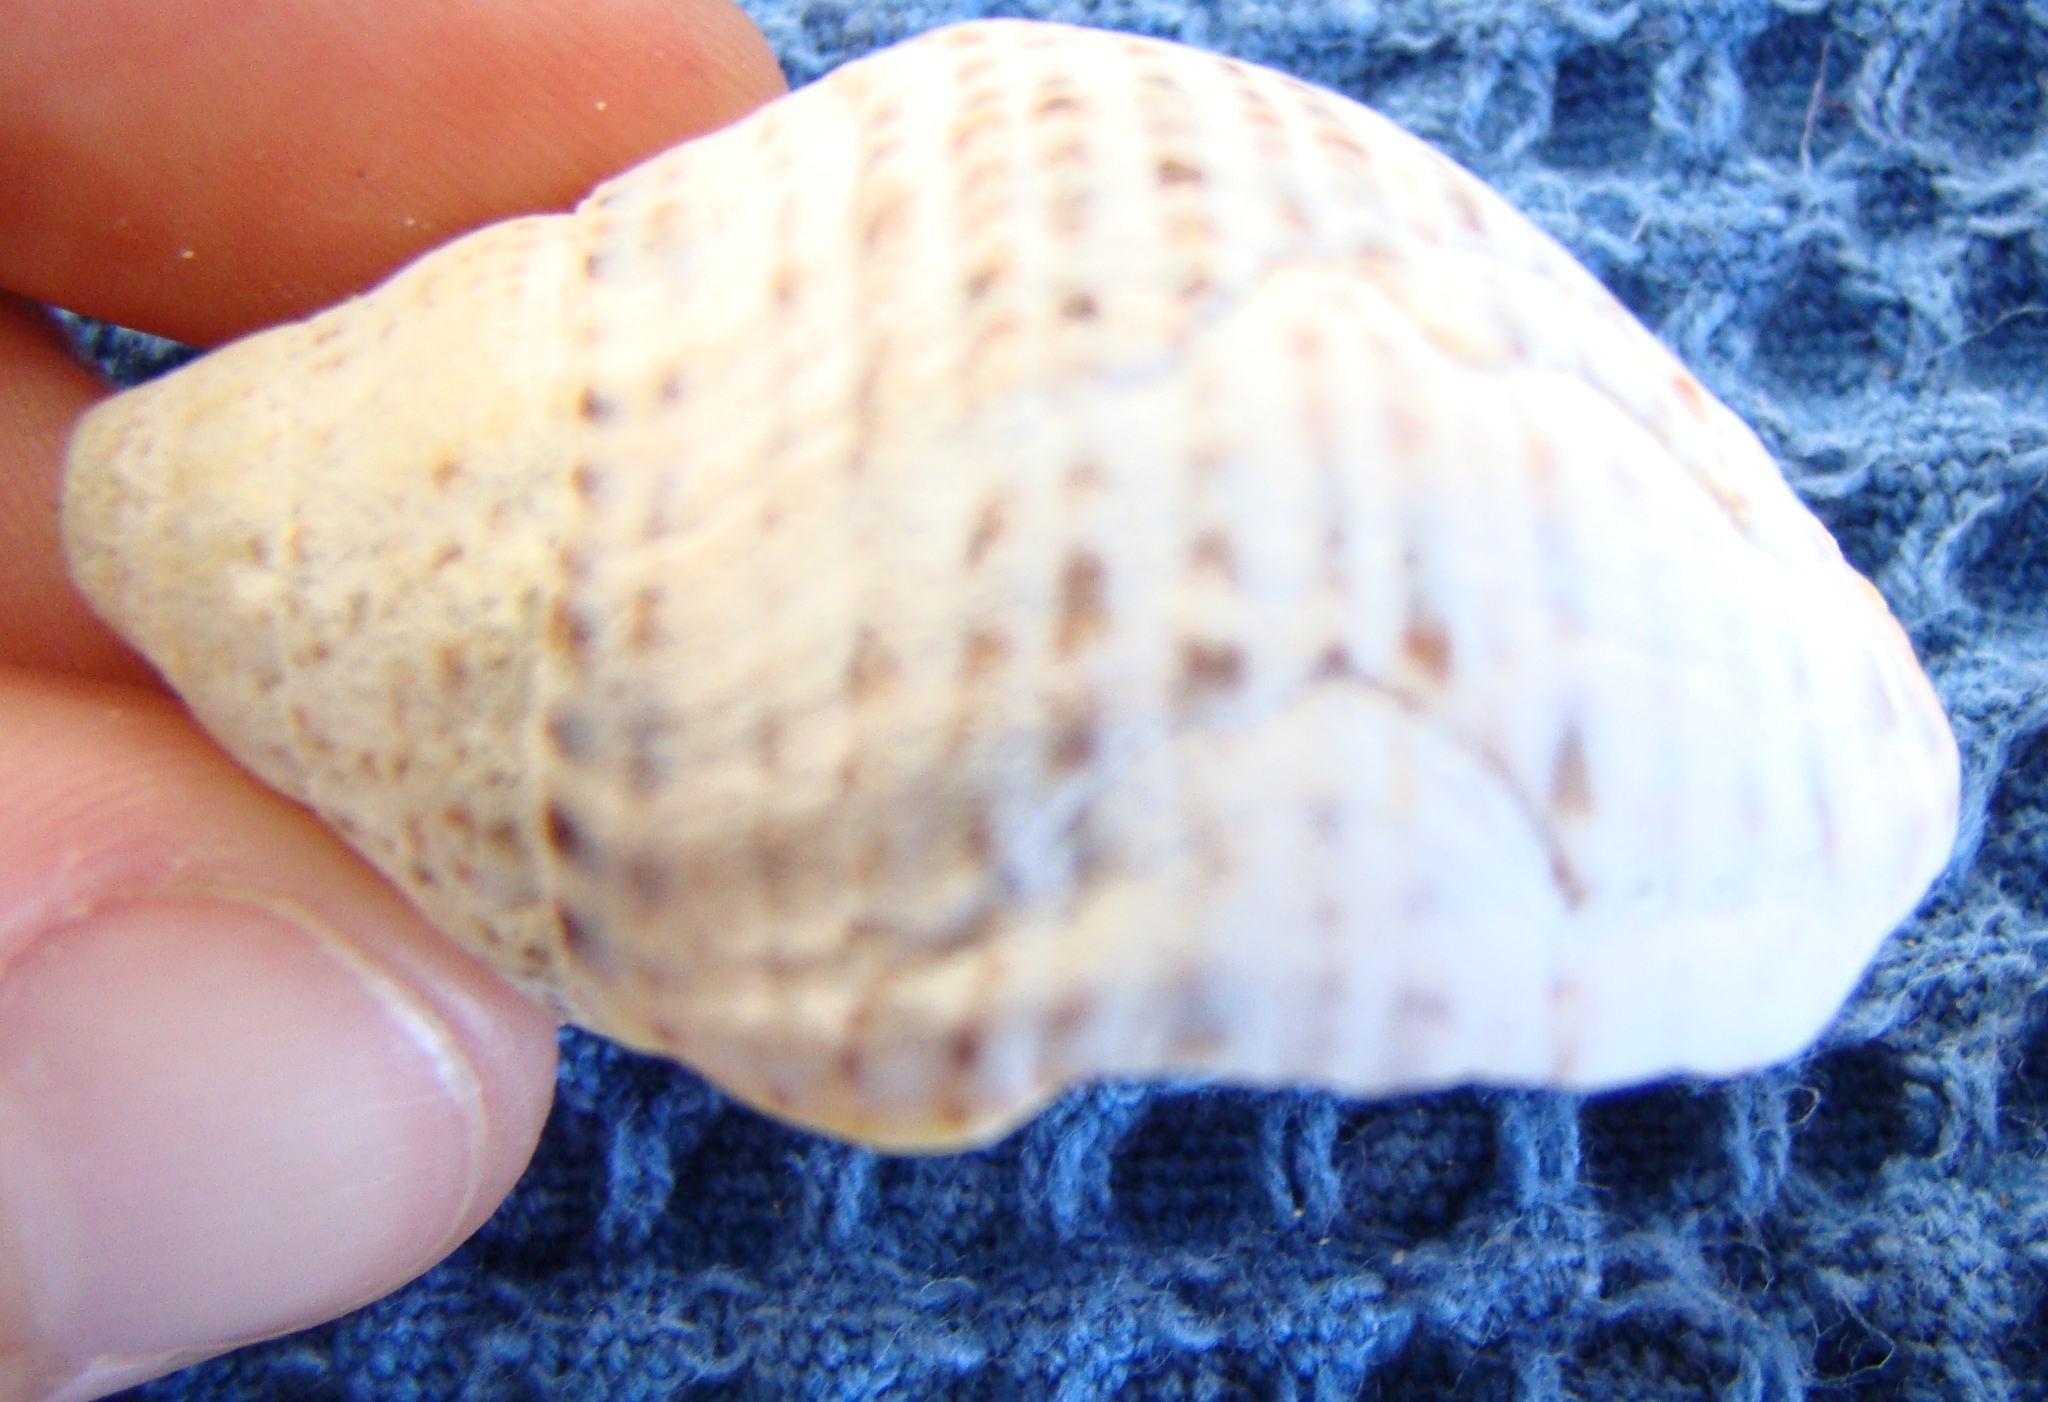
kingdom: Animalia
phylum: Mollusca
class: Gastropoda
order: Neogastropoda
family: Cominellidae
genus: Cominella
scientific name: Cominella adspersa
